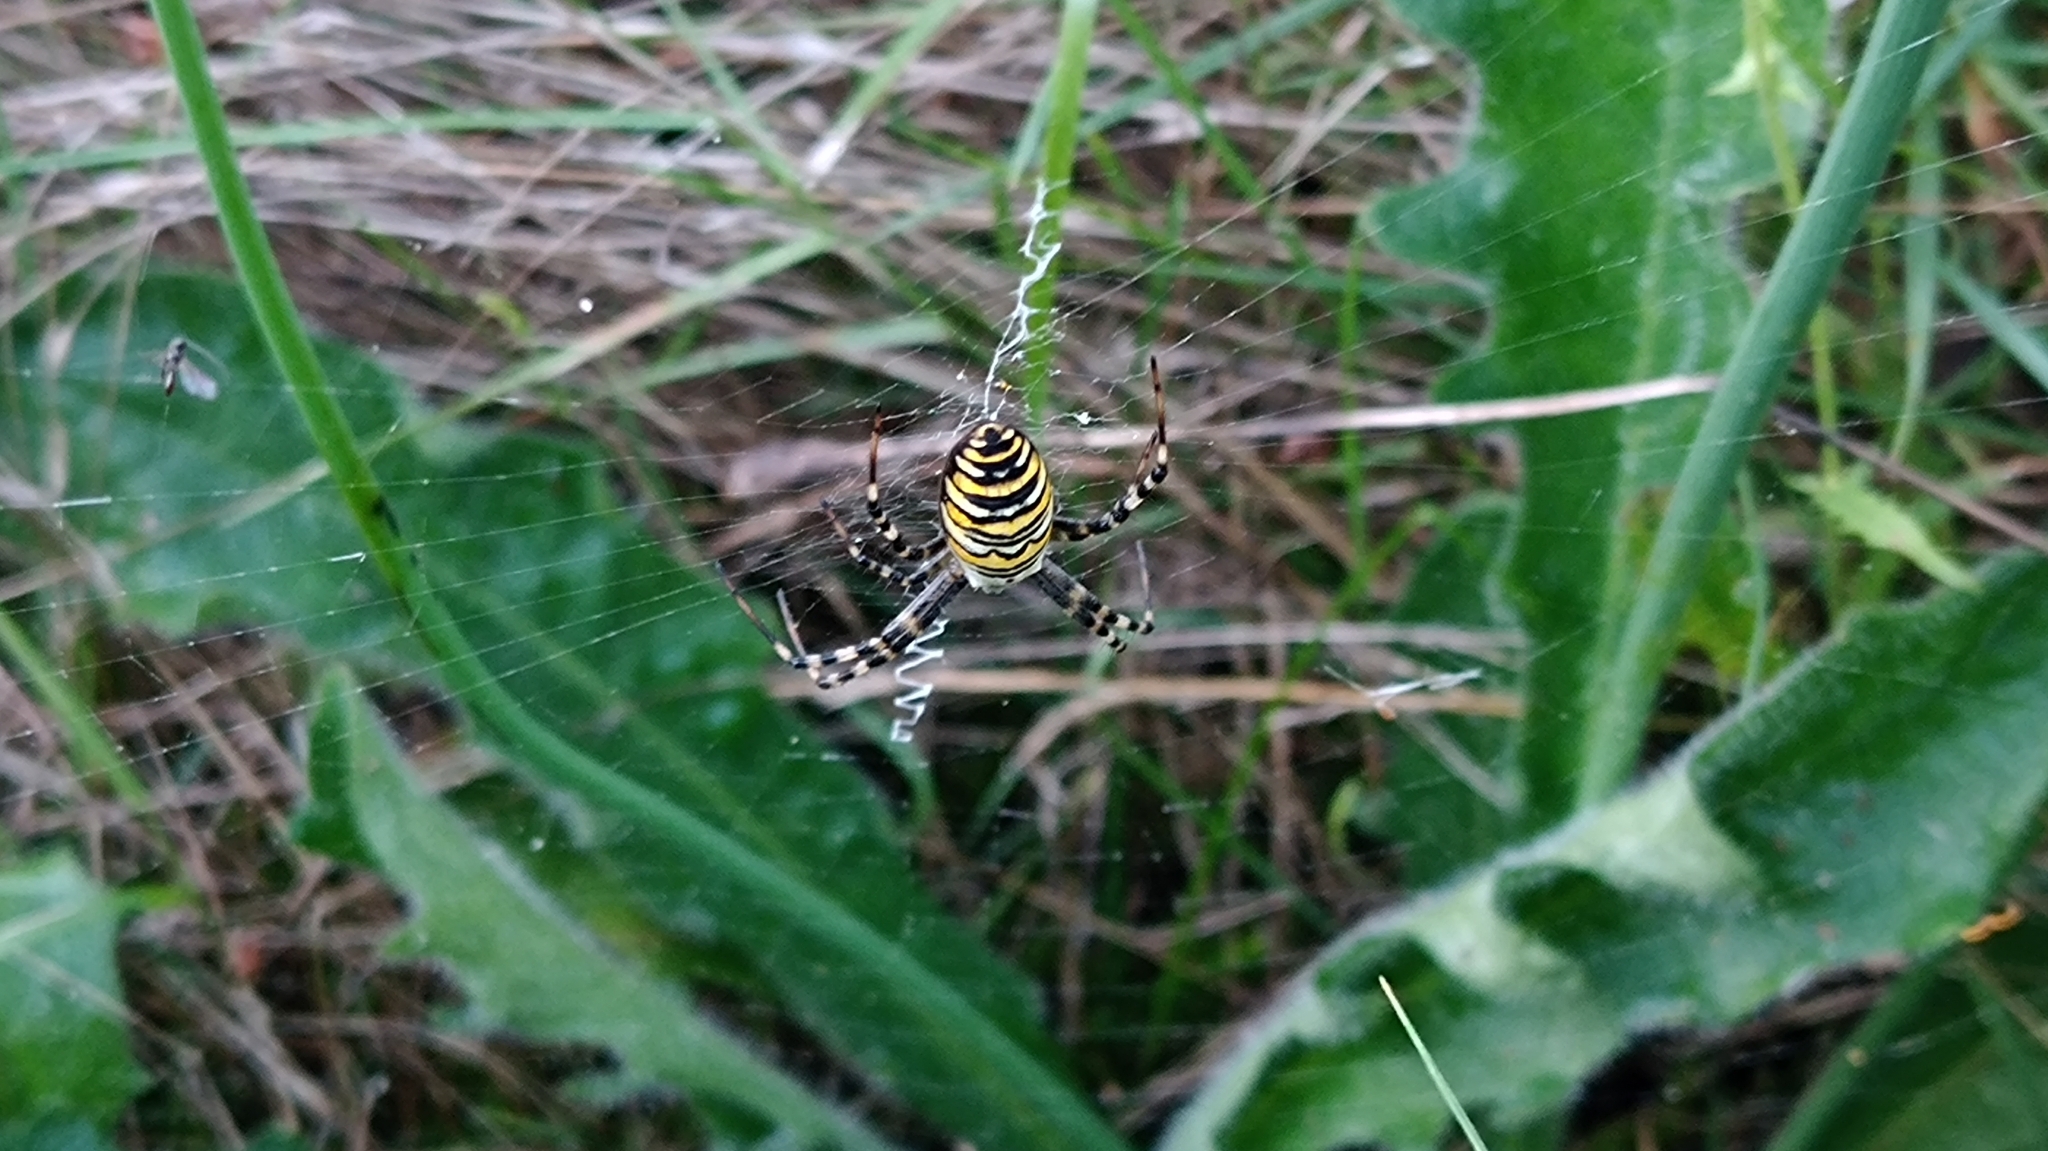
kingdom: Animalia
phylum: Arthropoda
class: Arachnida
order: Araneae
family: Araneidae
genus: Argiope
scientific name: Argiope bruennichi
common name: Wasp spider
